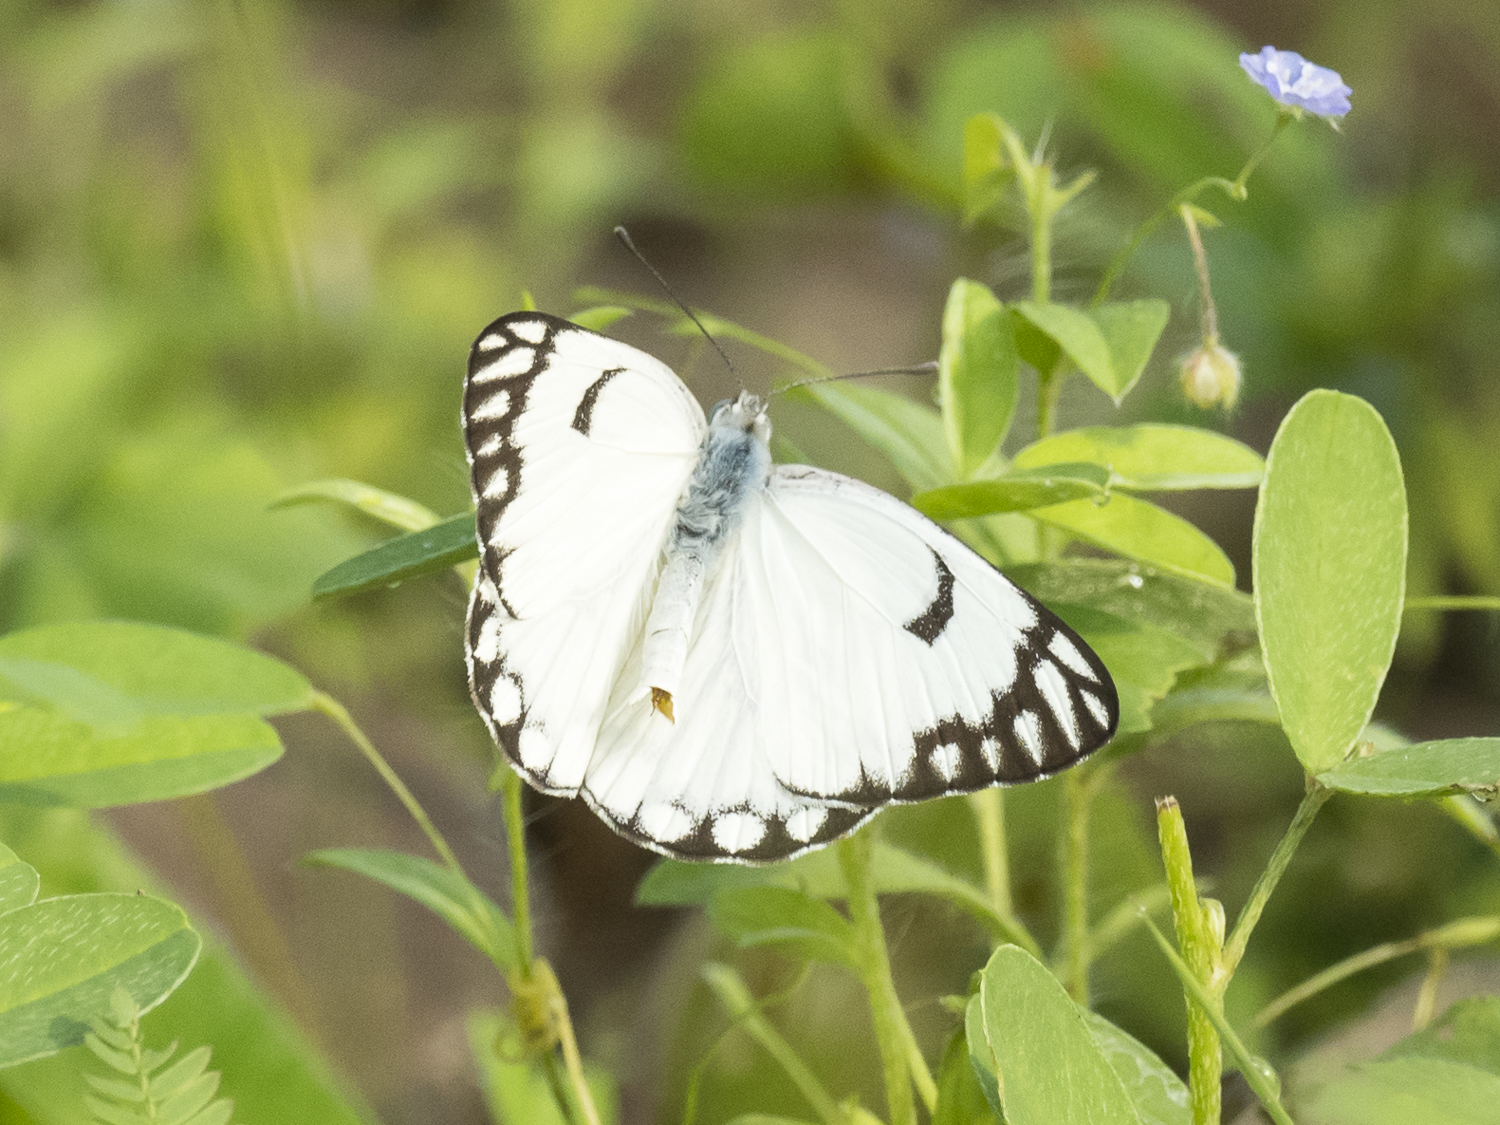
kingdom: Animalia
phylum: Arthropoda
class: Insecta
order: Lepidoptera
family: Pieridae
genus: Belenois
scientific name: Belenois aurota
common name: Brown-veined white
